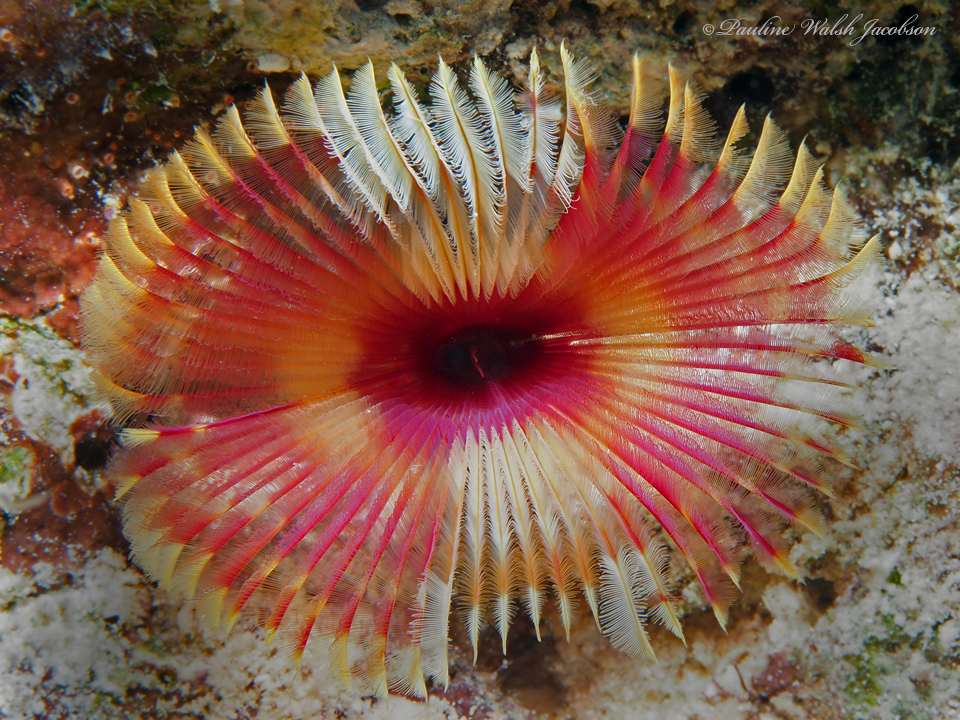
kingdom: Animalia
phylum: Annelida
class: Polychaeta
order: Sabellida
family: Sabellidae
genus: Anamobaea
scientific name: Anamobaea orstedii
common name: Split-crown feather duster
